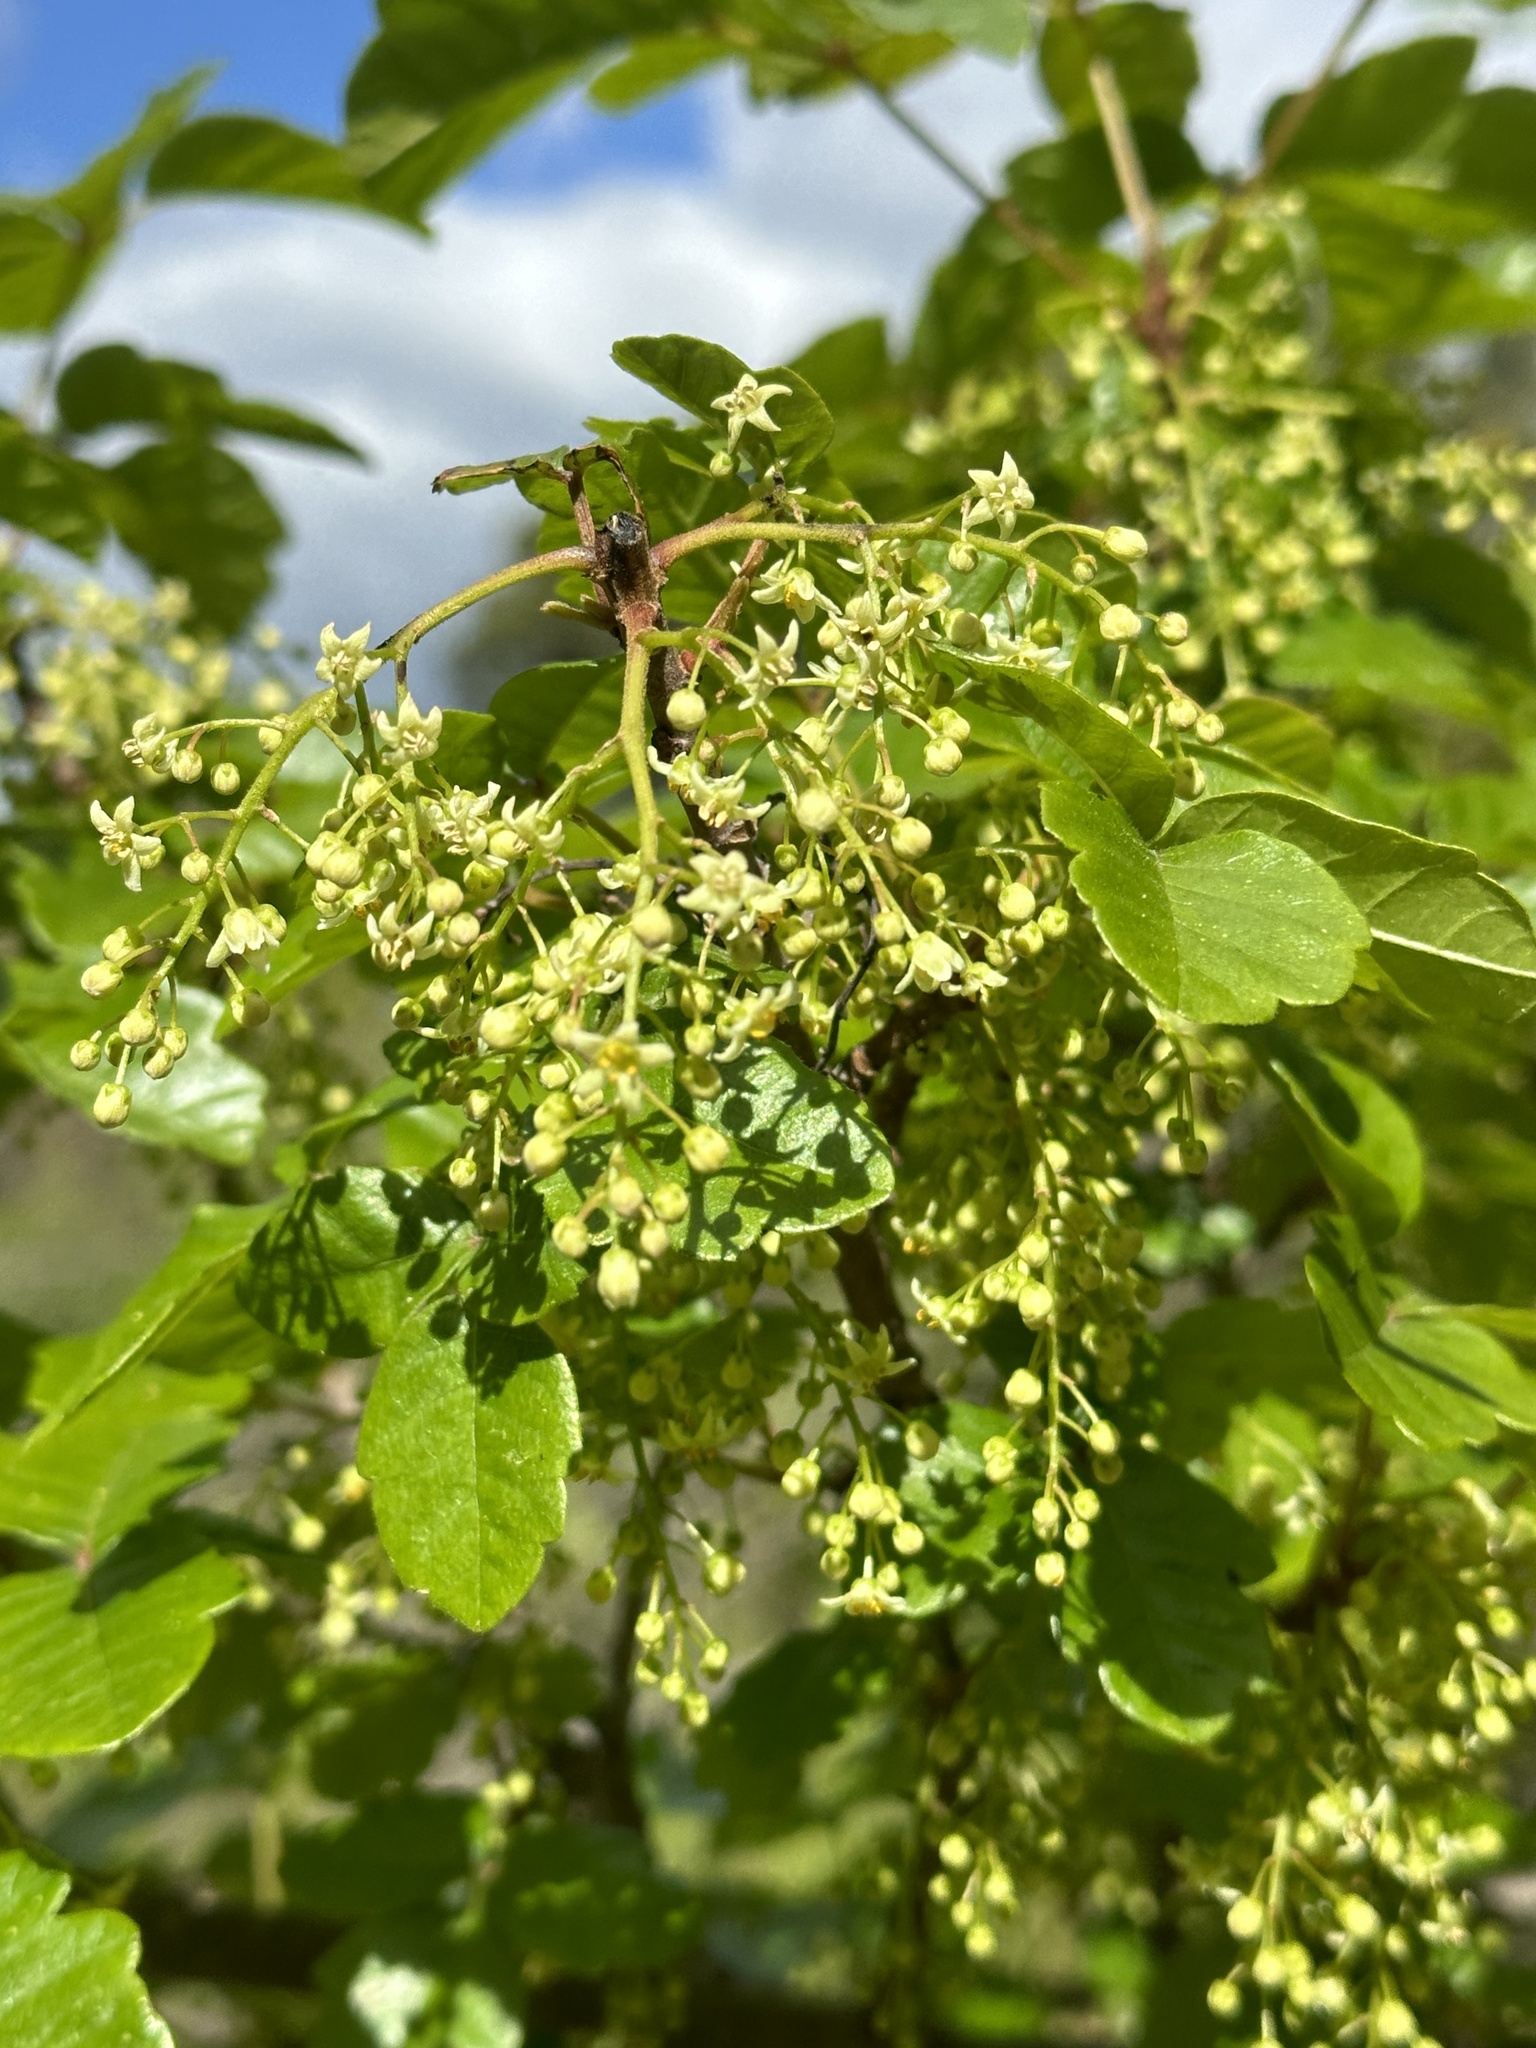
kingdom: Plantae
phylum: Tracheophyta
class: Magnoliopsida
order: Sapindales
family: Anacardiaceae
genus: Toxicodendron
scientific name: Toxicodendron diversilobum
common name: Pacific poison-oak
